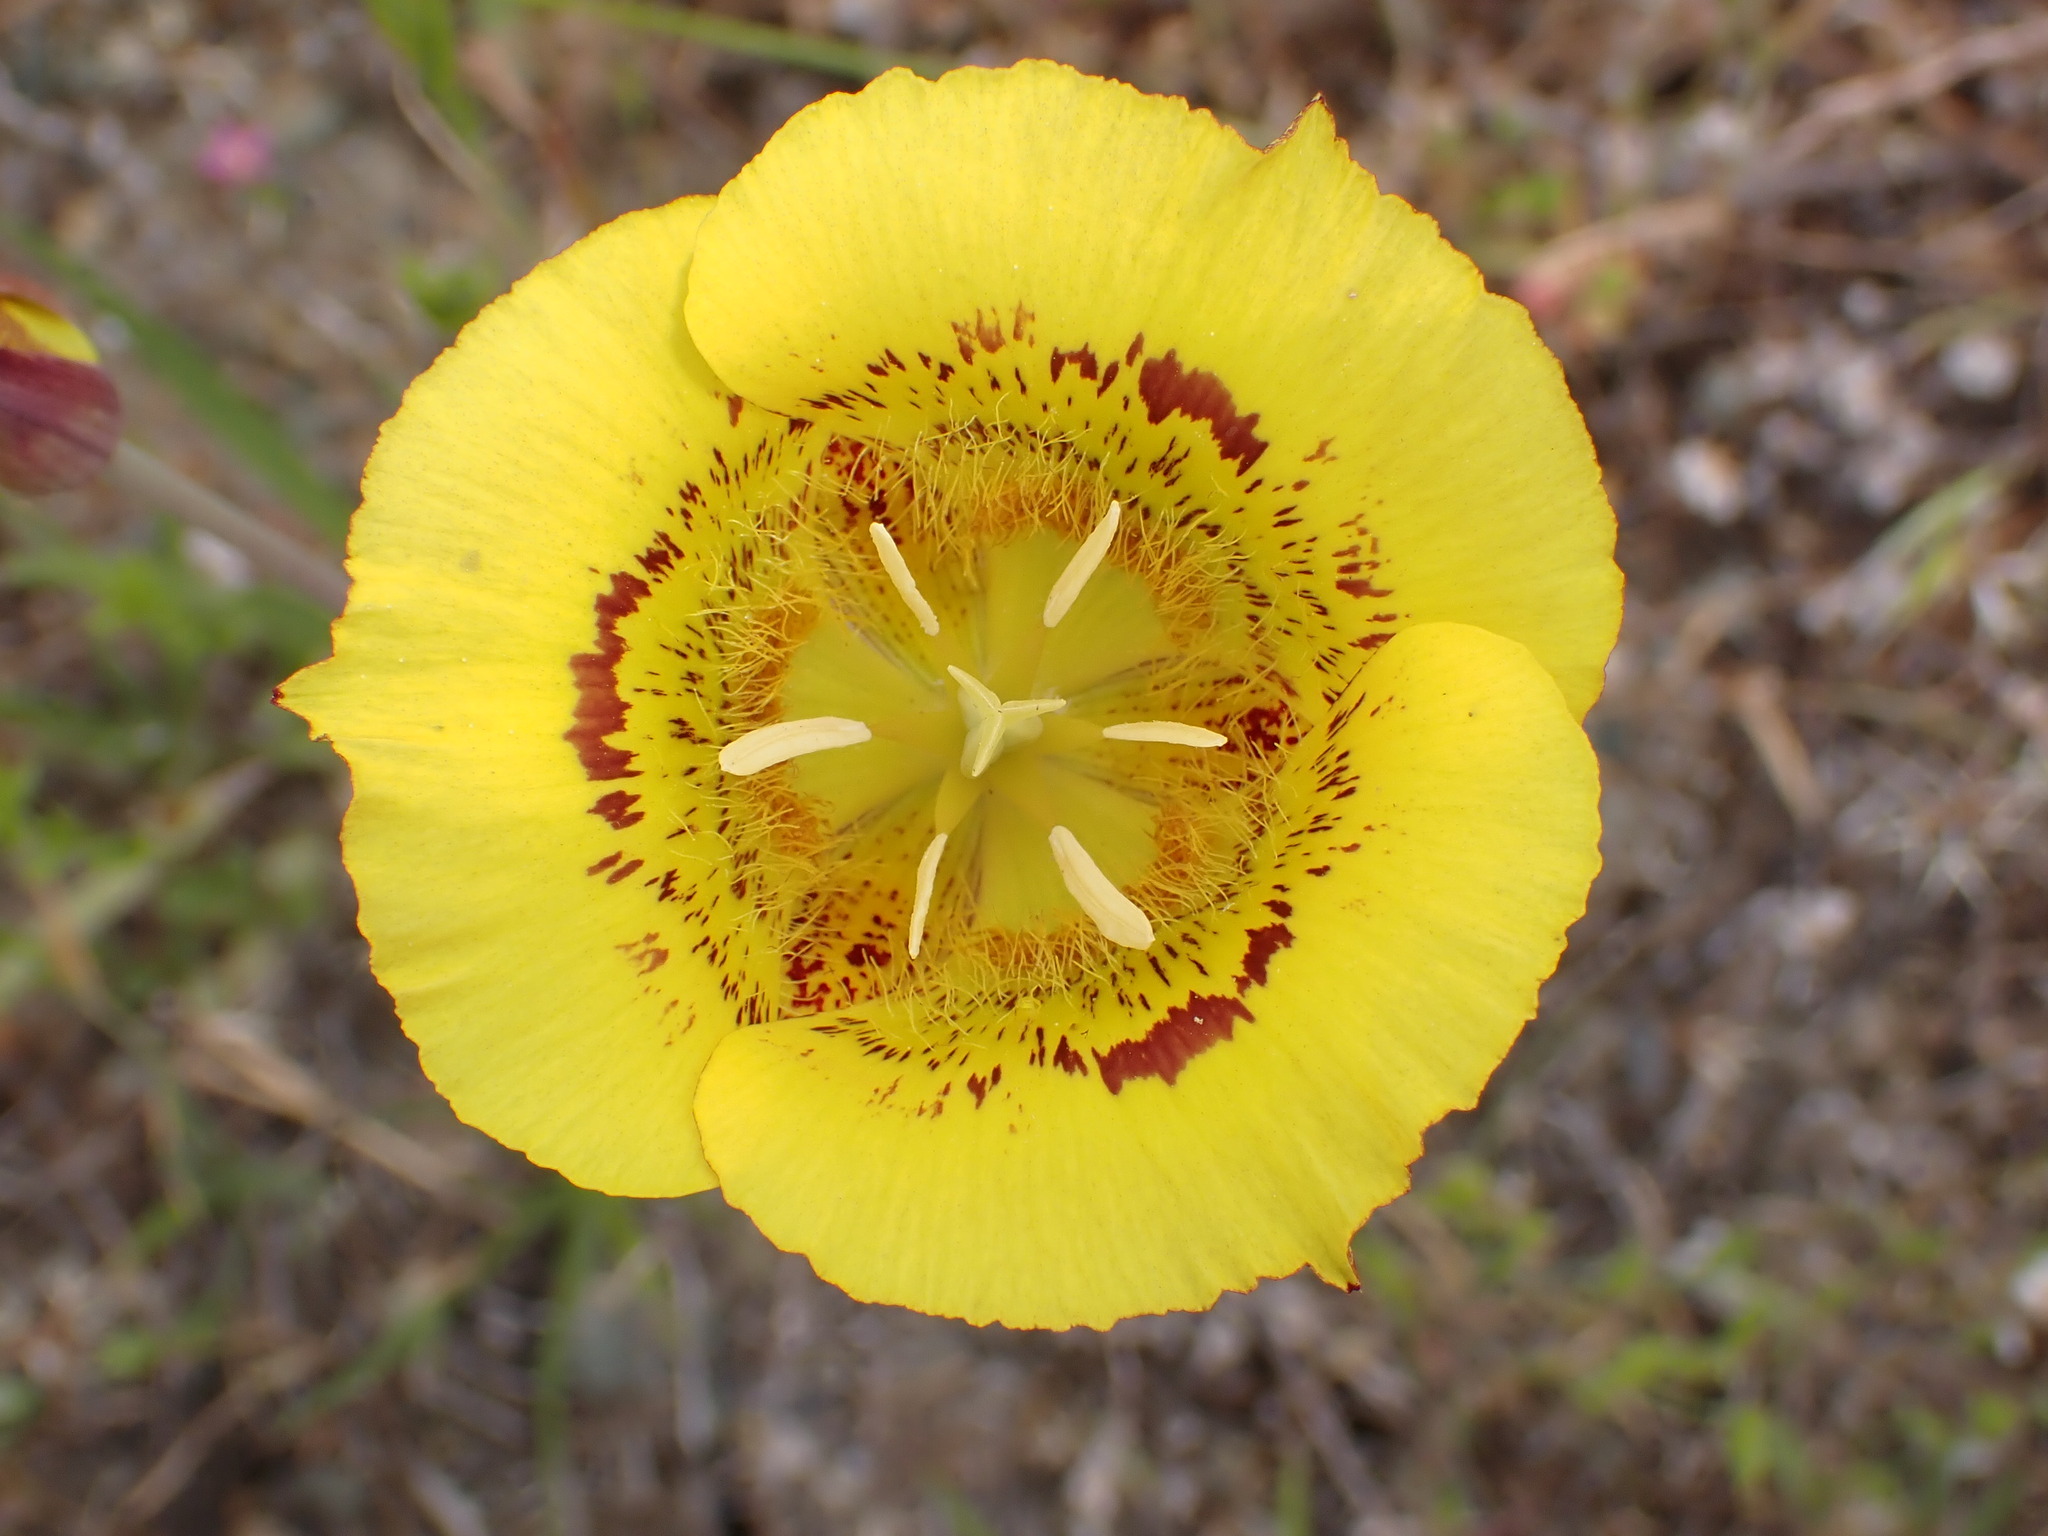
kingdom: Plantae
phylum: Tracheophyta
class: Liliopsida
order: Liliales
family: Liliaceae
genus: Calochortus
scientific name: Calochortus luteus
